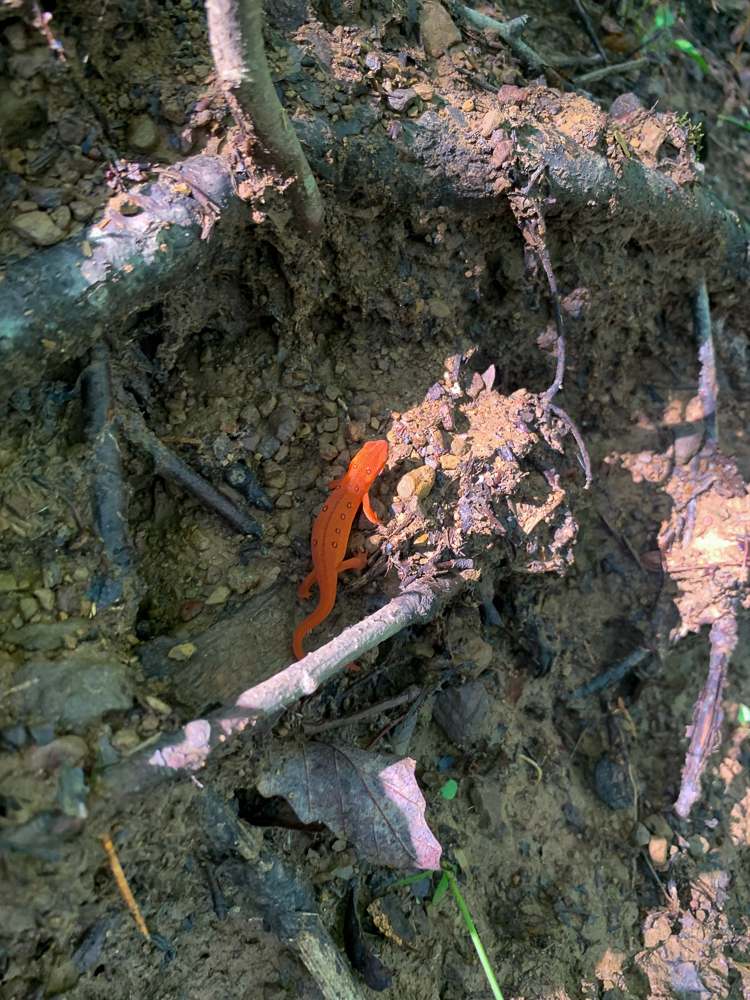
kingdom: Animalia
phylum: Chordata
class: Amphibia
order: Caudata
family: Salamandridae
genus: Notophthalmus
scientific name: Notophthalmus viridescens
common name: Eastern newt
